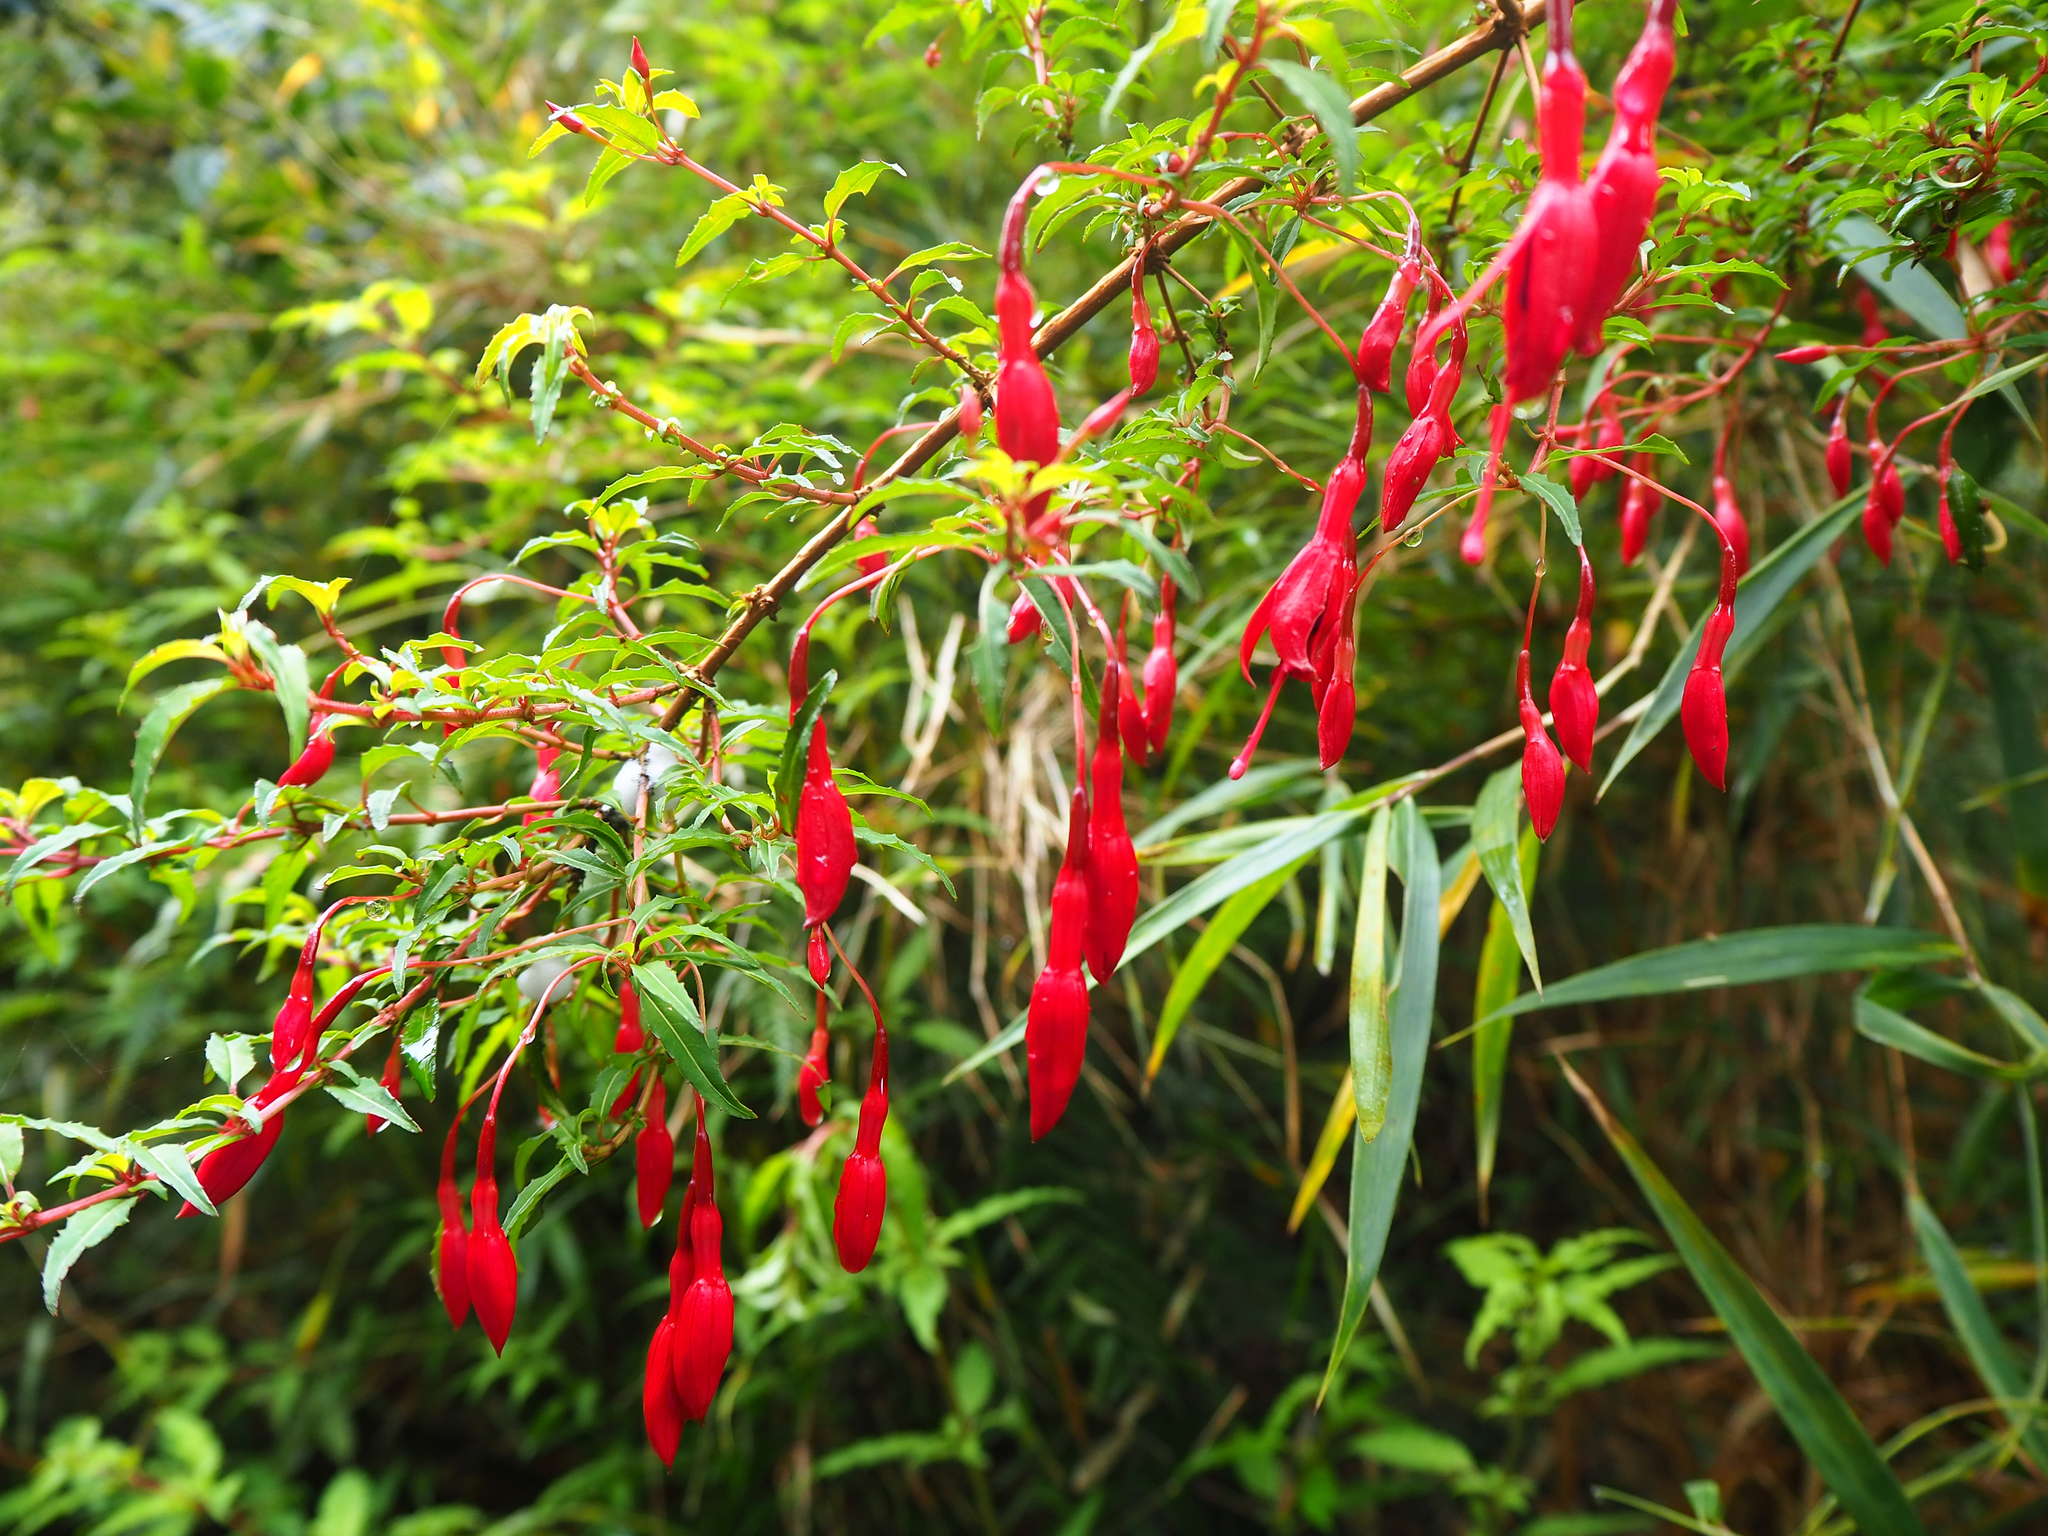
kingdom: Plantae
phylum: Tracheophyta
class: Magnoliopsida
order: Myrtales
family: Onagraceae
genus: Fuchsia
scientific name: Fuchsia magellanica
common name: Hardy fuchsia
